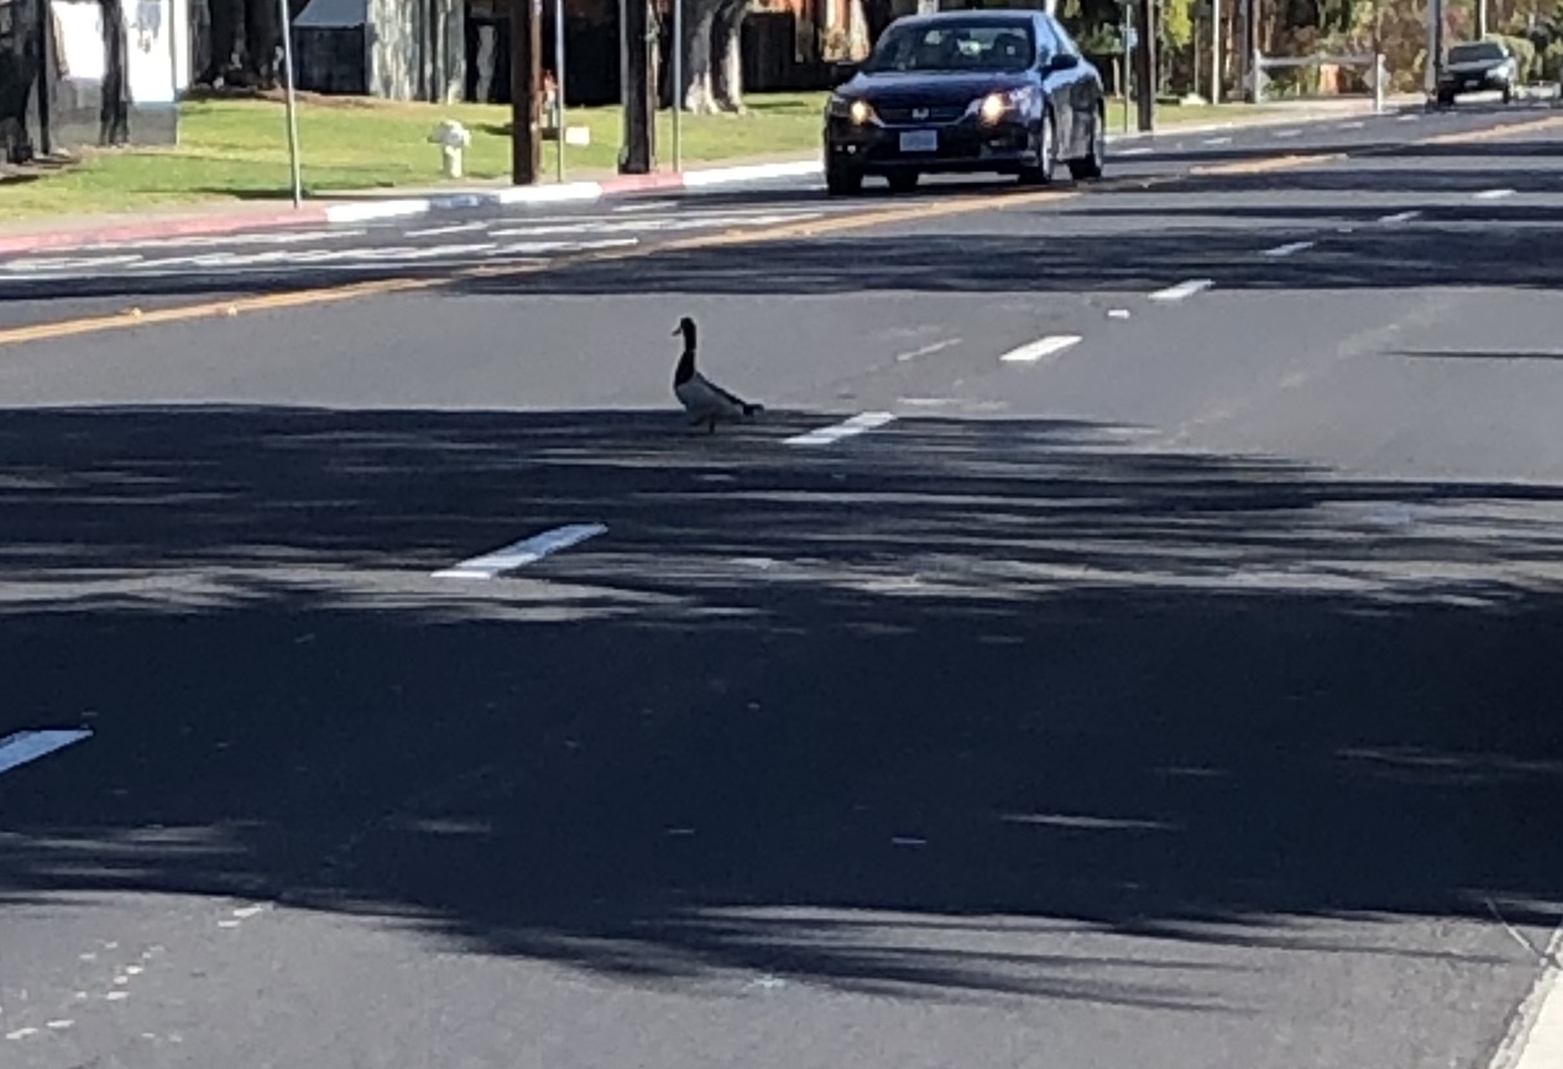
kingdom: Animalia
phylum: Chordata
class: Aves
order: Anseriformes
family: Anatidae
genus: Anas
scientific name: Anas platyrhynchos
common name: Mallard
